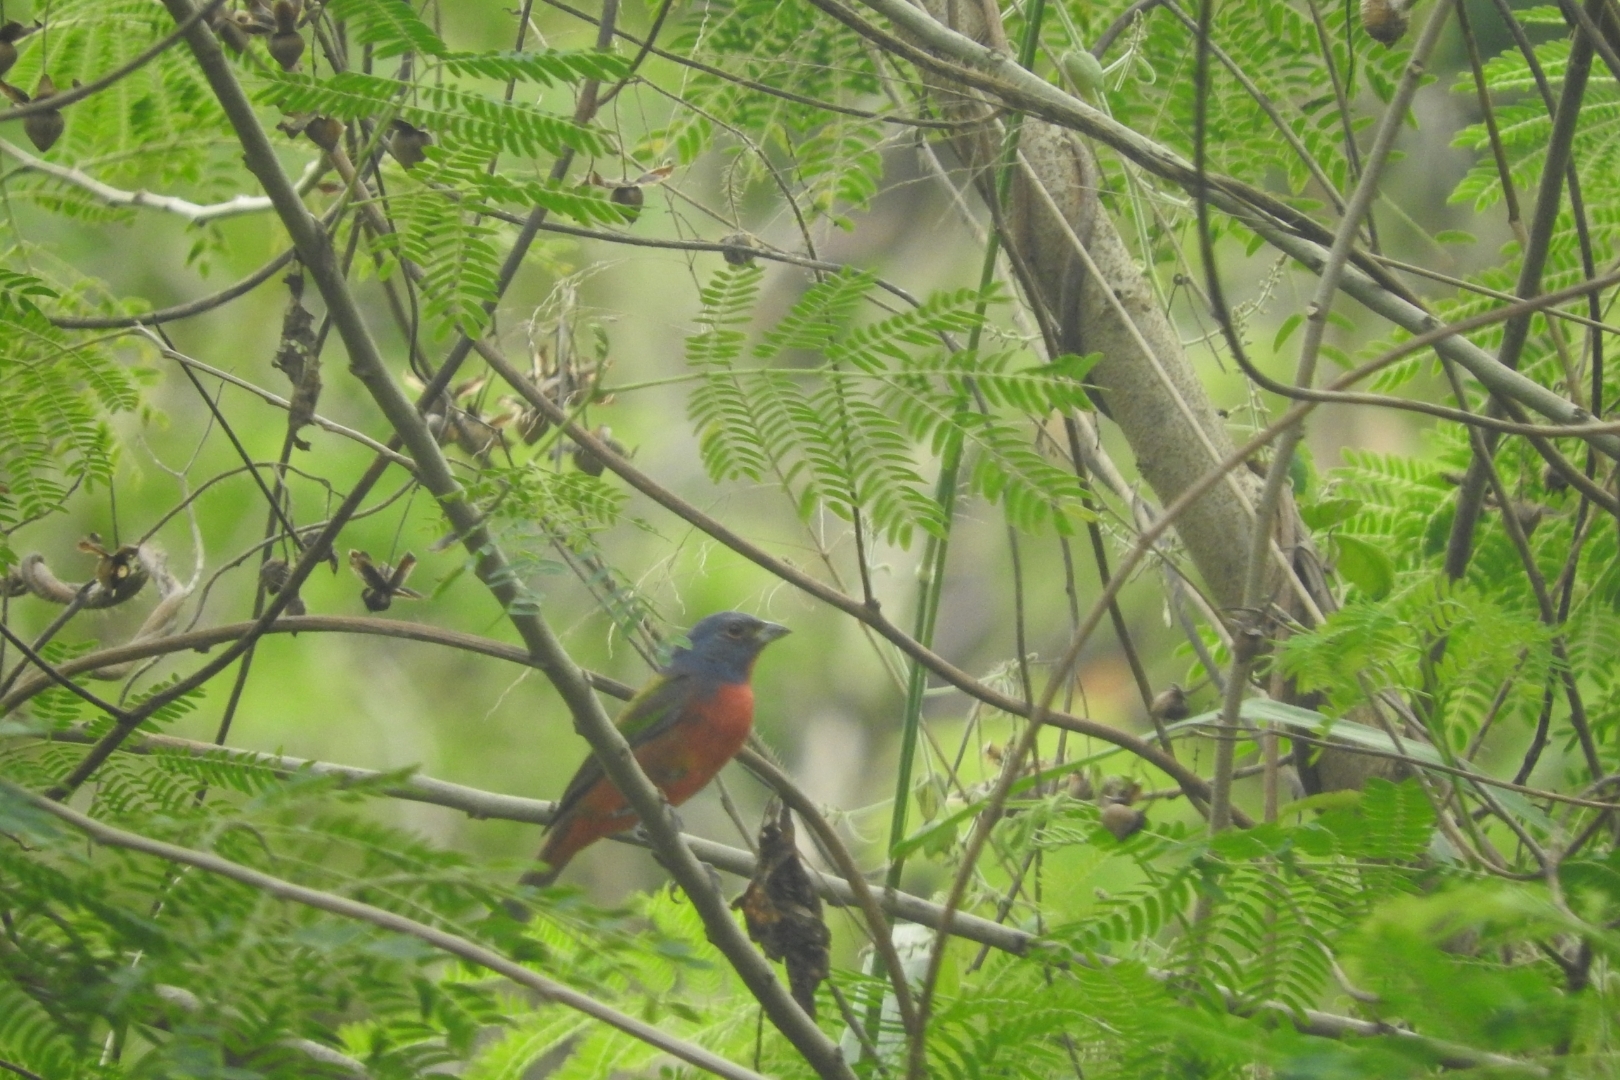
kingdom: Animalia
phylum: Chordata
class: Aves
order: Passeriformes
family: Cardinalidae
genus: Passerina
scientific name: Passerina ciris
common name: Painted bunting
